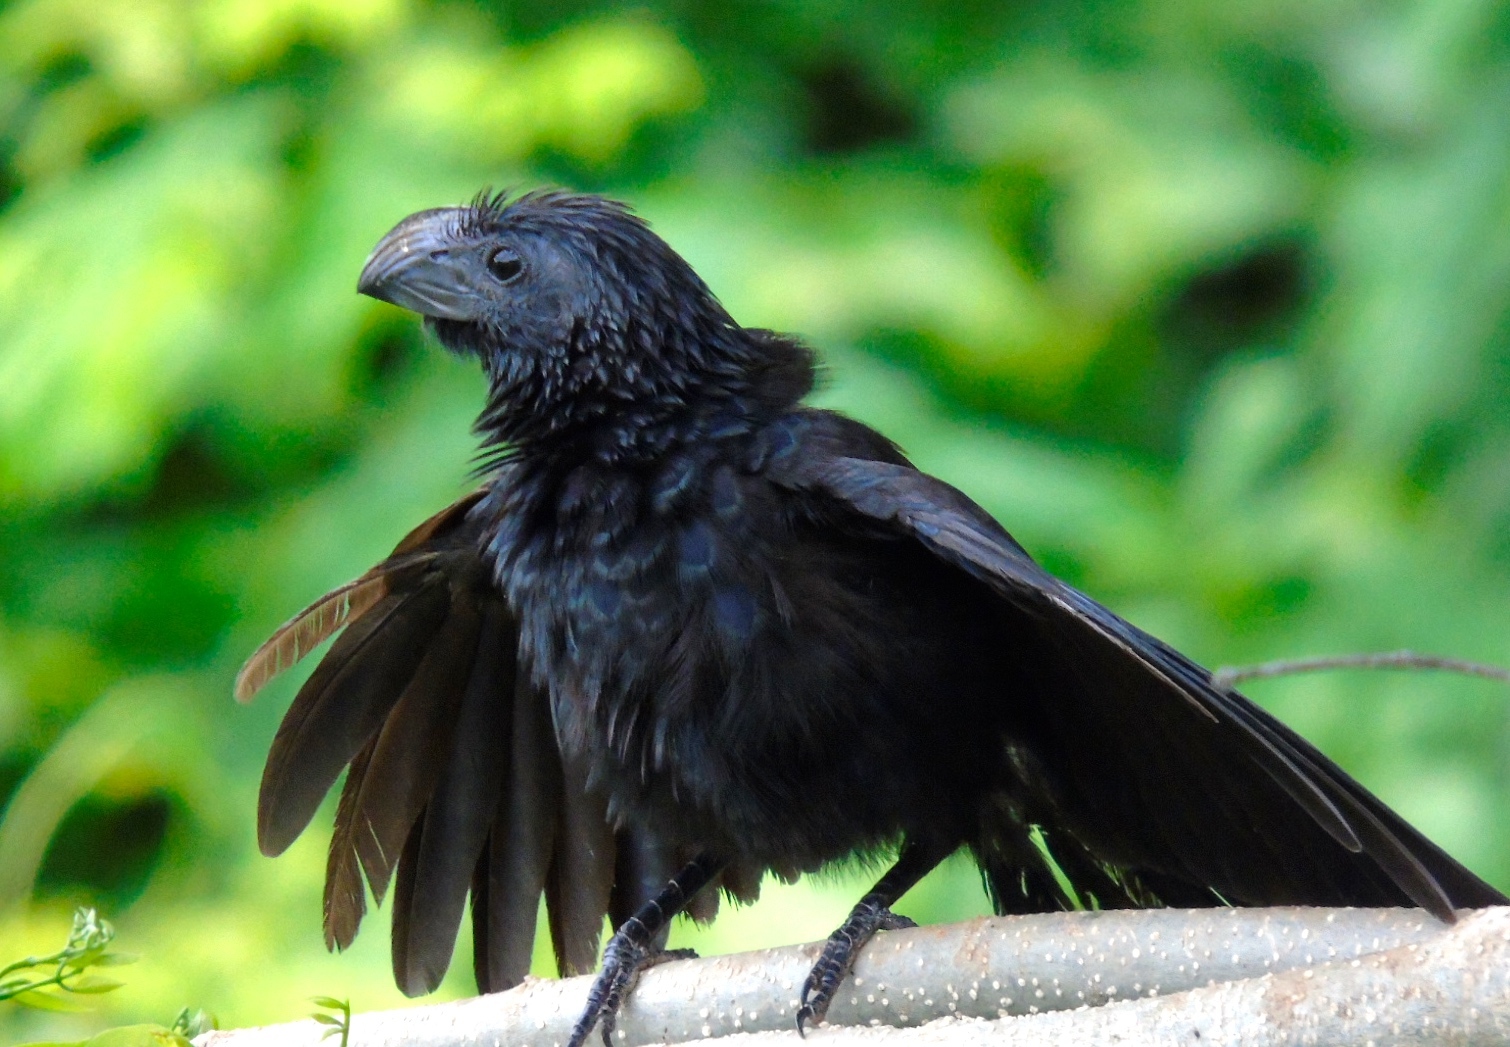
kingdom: Animalia
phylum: Chordata
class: Aves
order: Cuculiformes
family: Cuculidae
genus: Crotophaga
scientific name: Crotophaga sulcirostris
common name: Groove-billed ani
